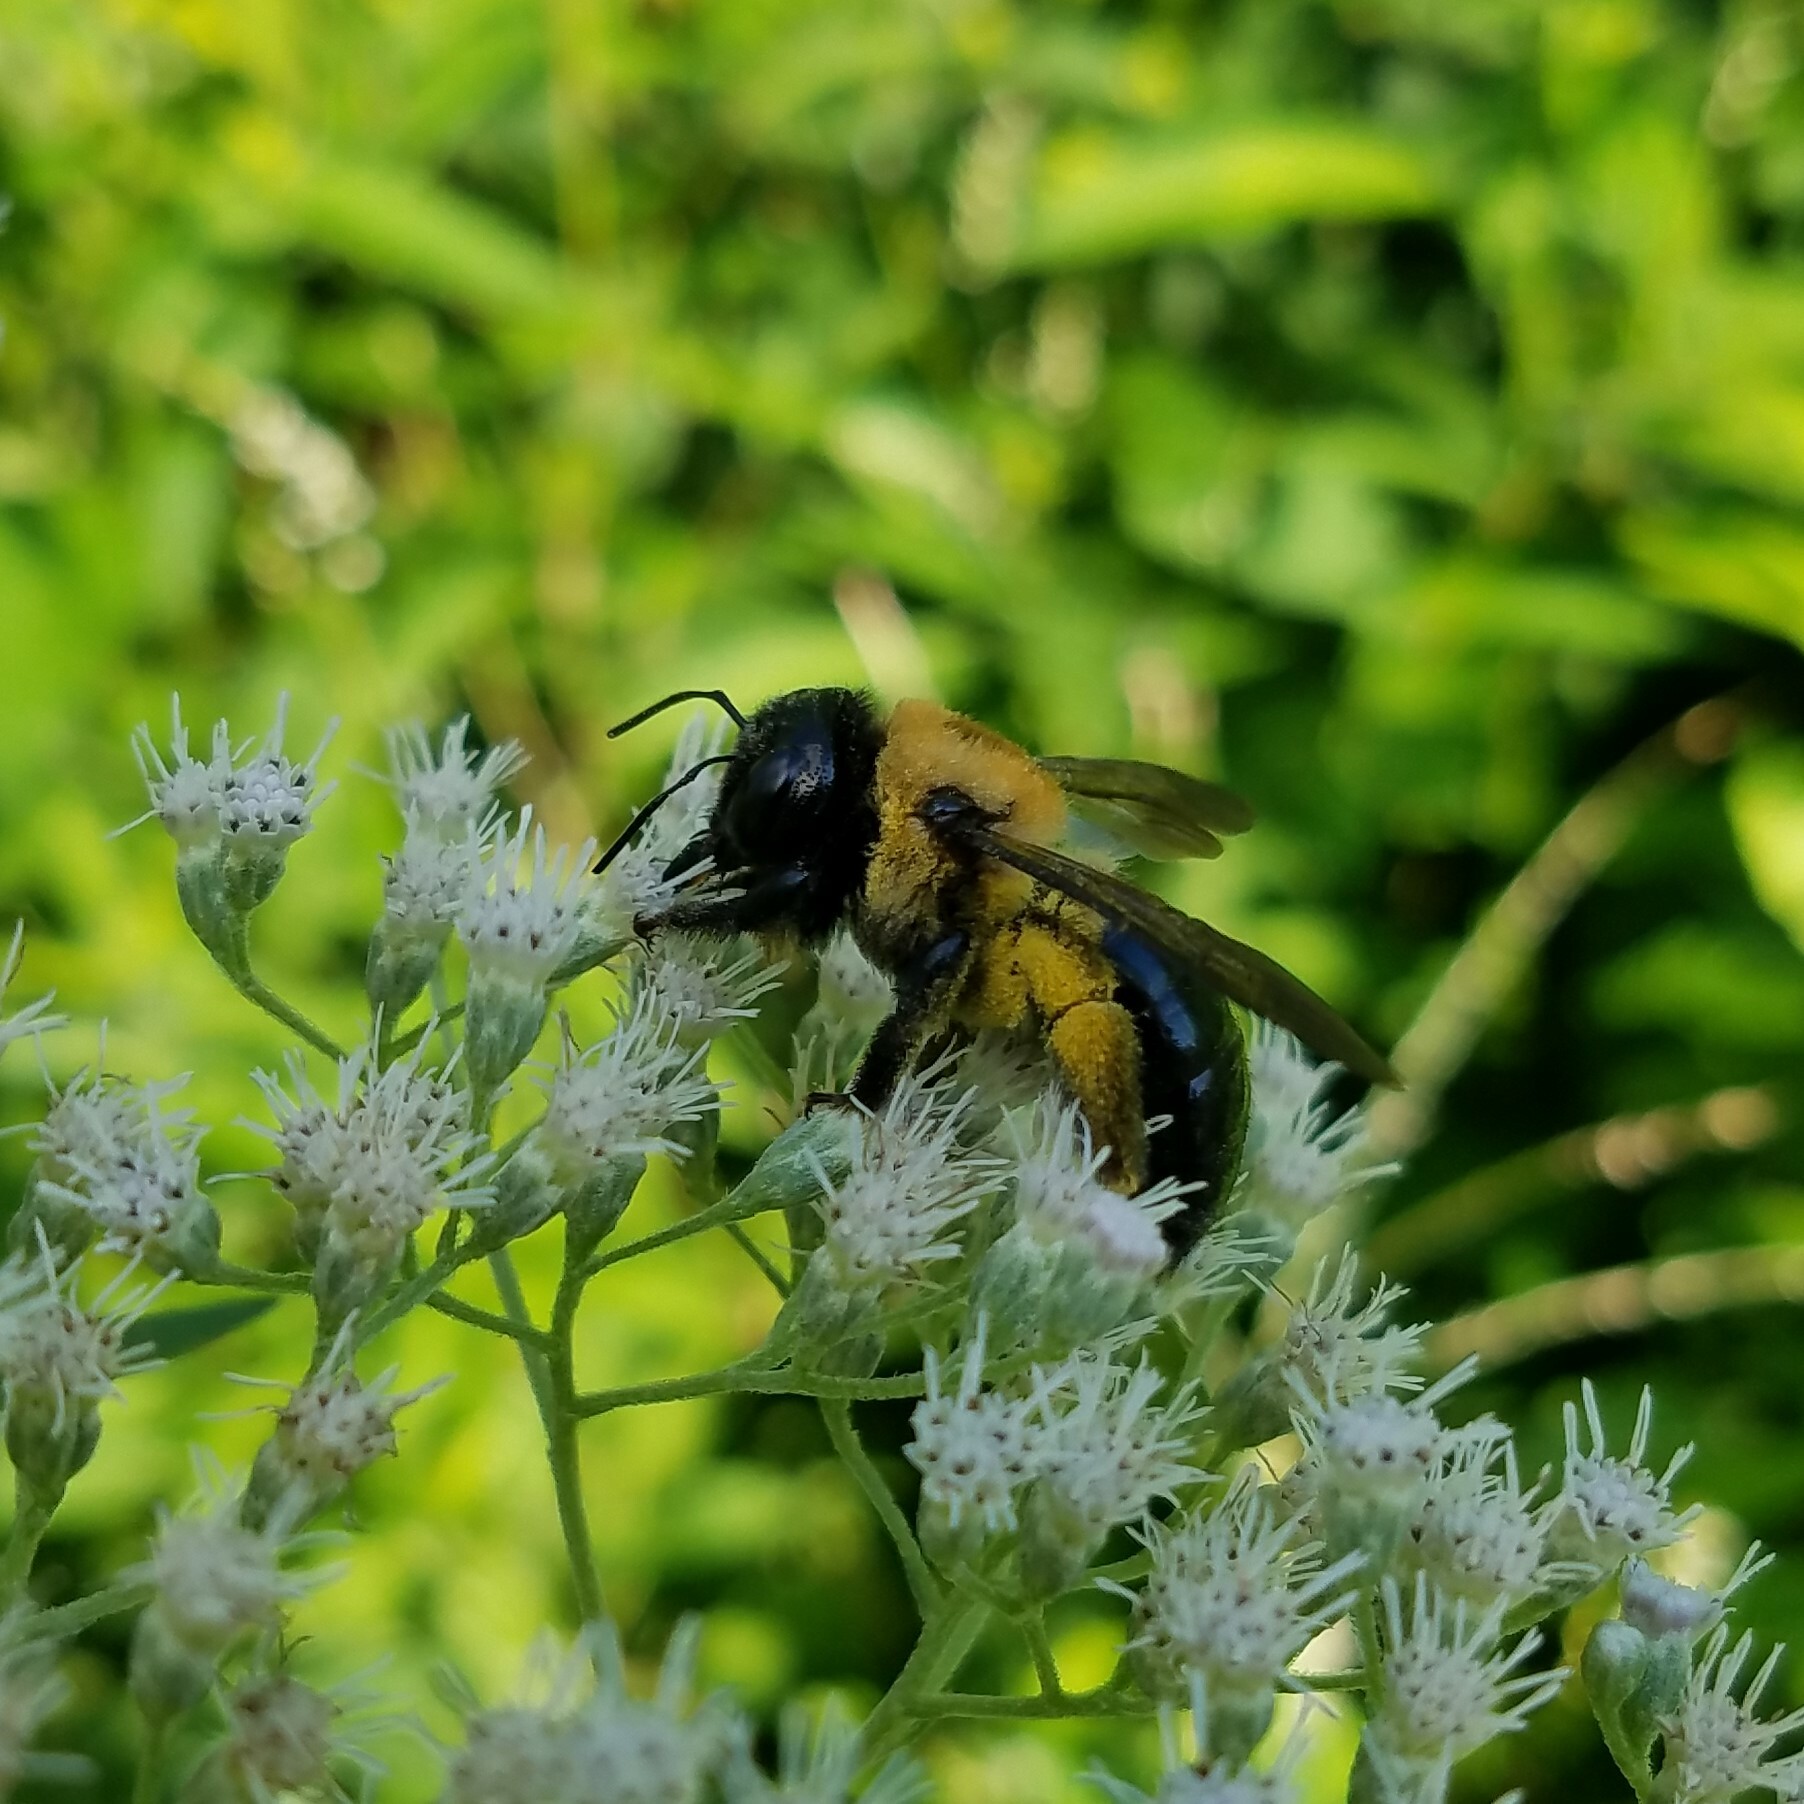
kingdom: Animalia
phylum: Arthropoda
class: Insecta
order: Hymenoptera
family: Apidae
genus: Xylocopa
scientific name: Xylocopa virginica
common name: Carpenter bee
